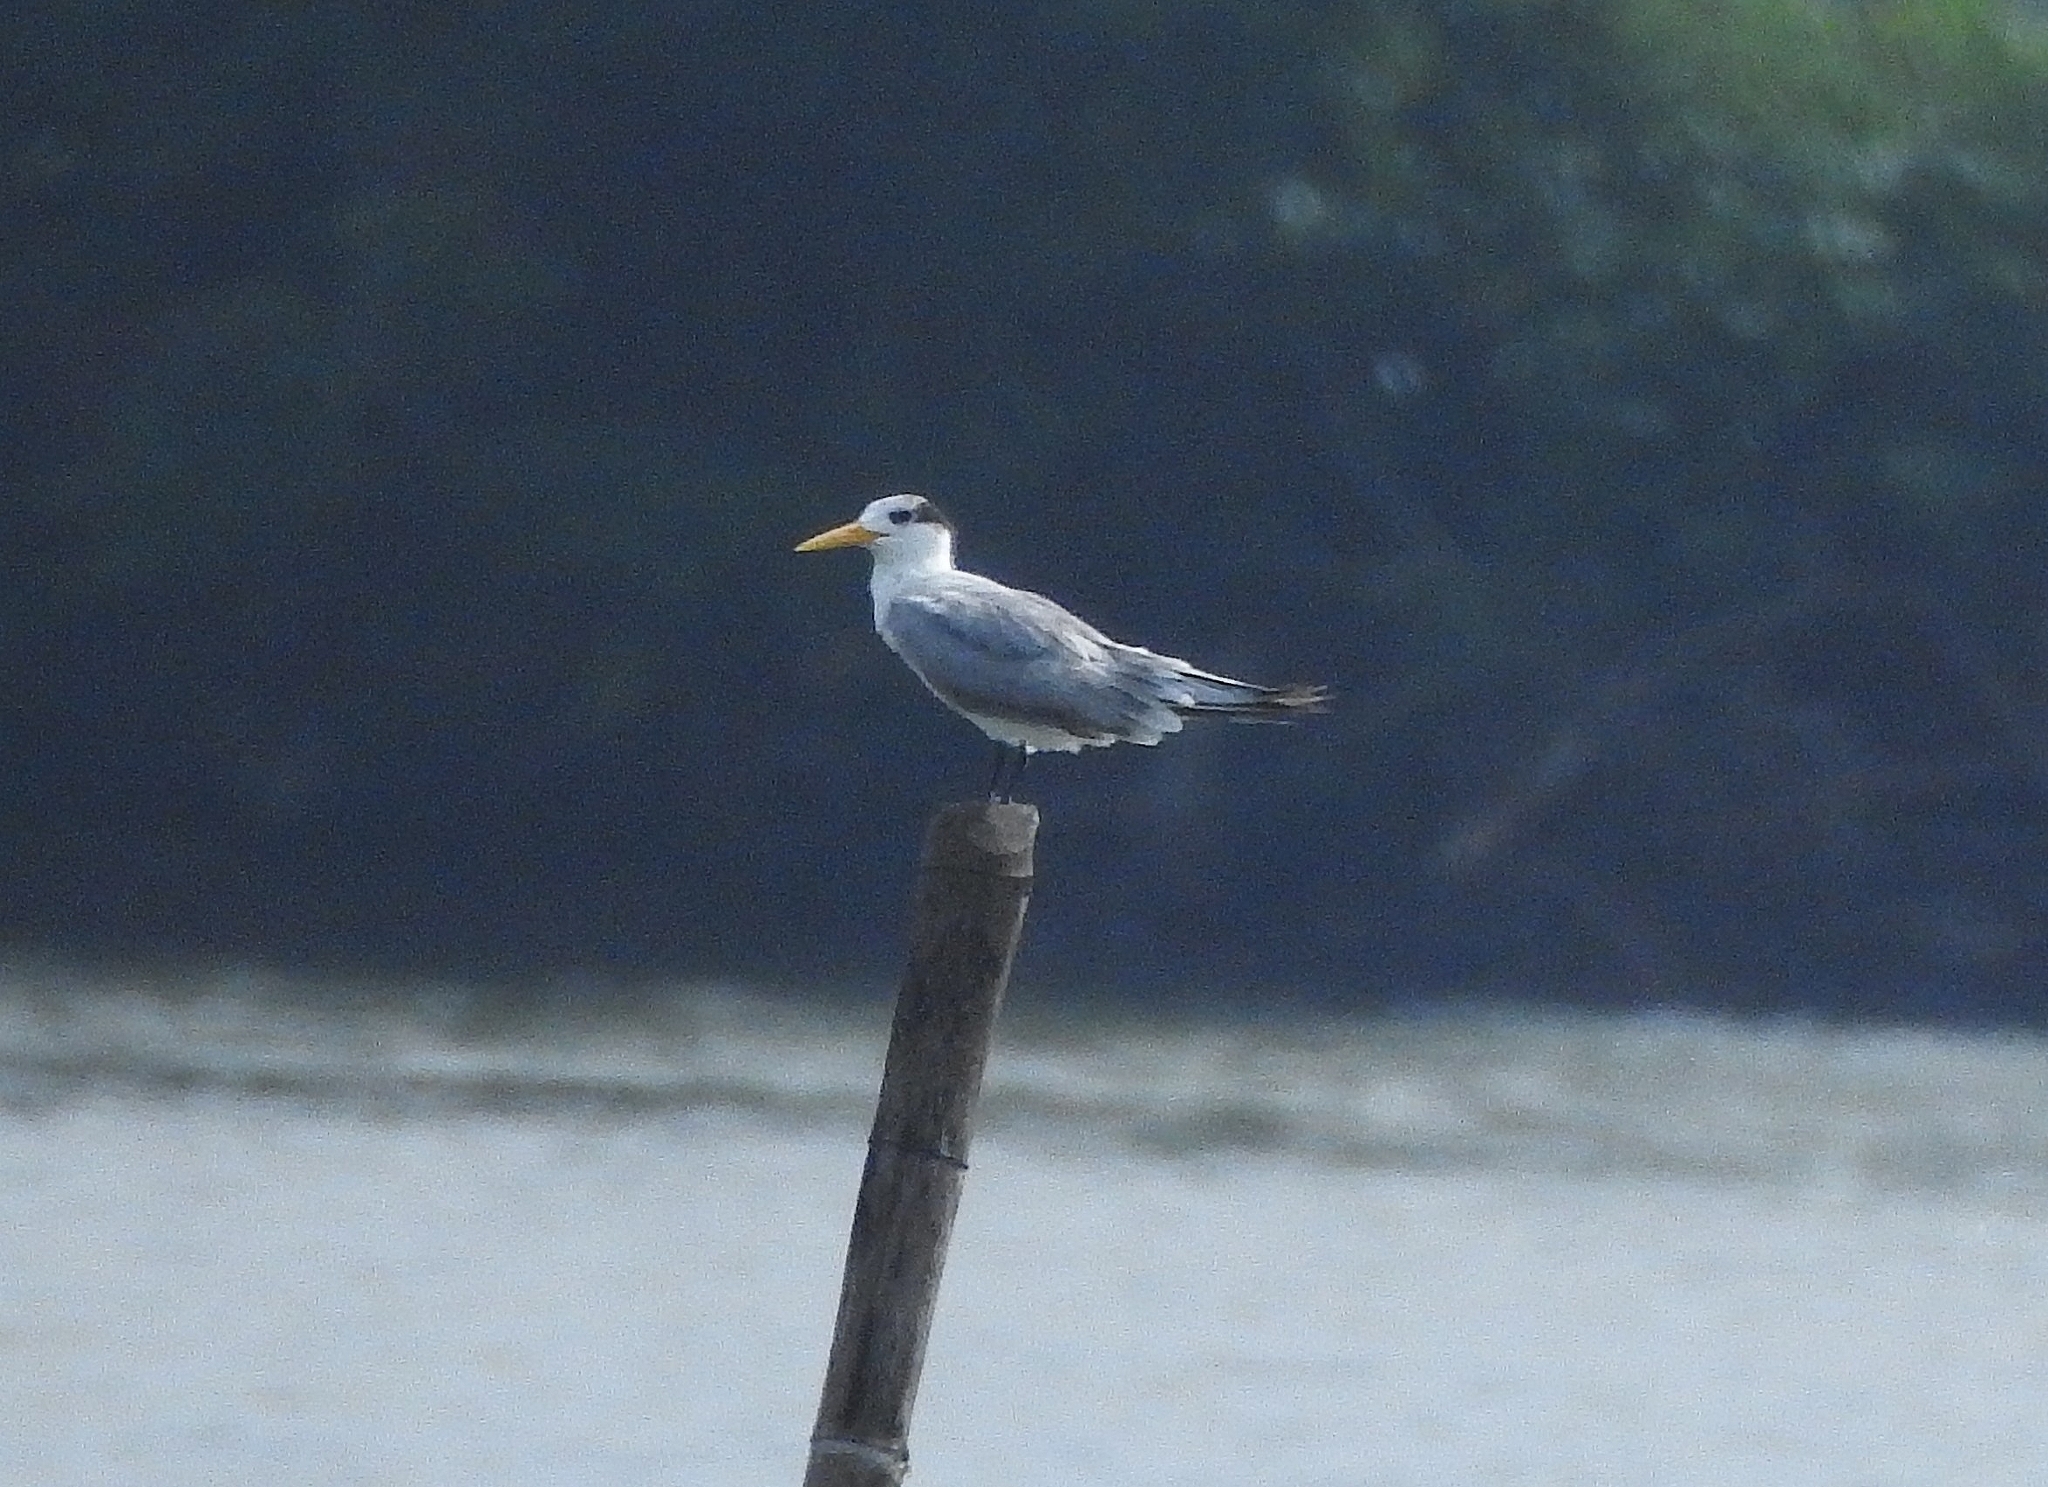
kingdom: Animalia
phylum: Chordata
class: Aves
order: Charadriiformes
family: Laridae
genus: Thalasseus
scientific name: Thalasseus bergii
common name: Greater crested tern
